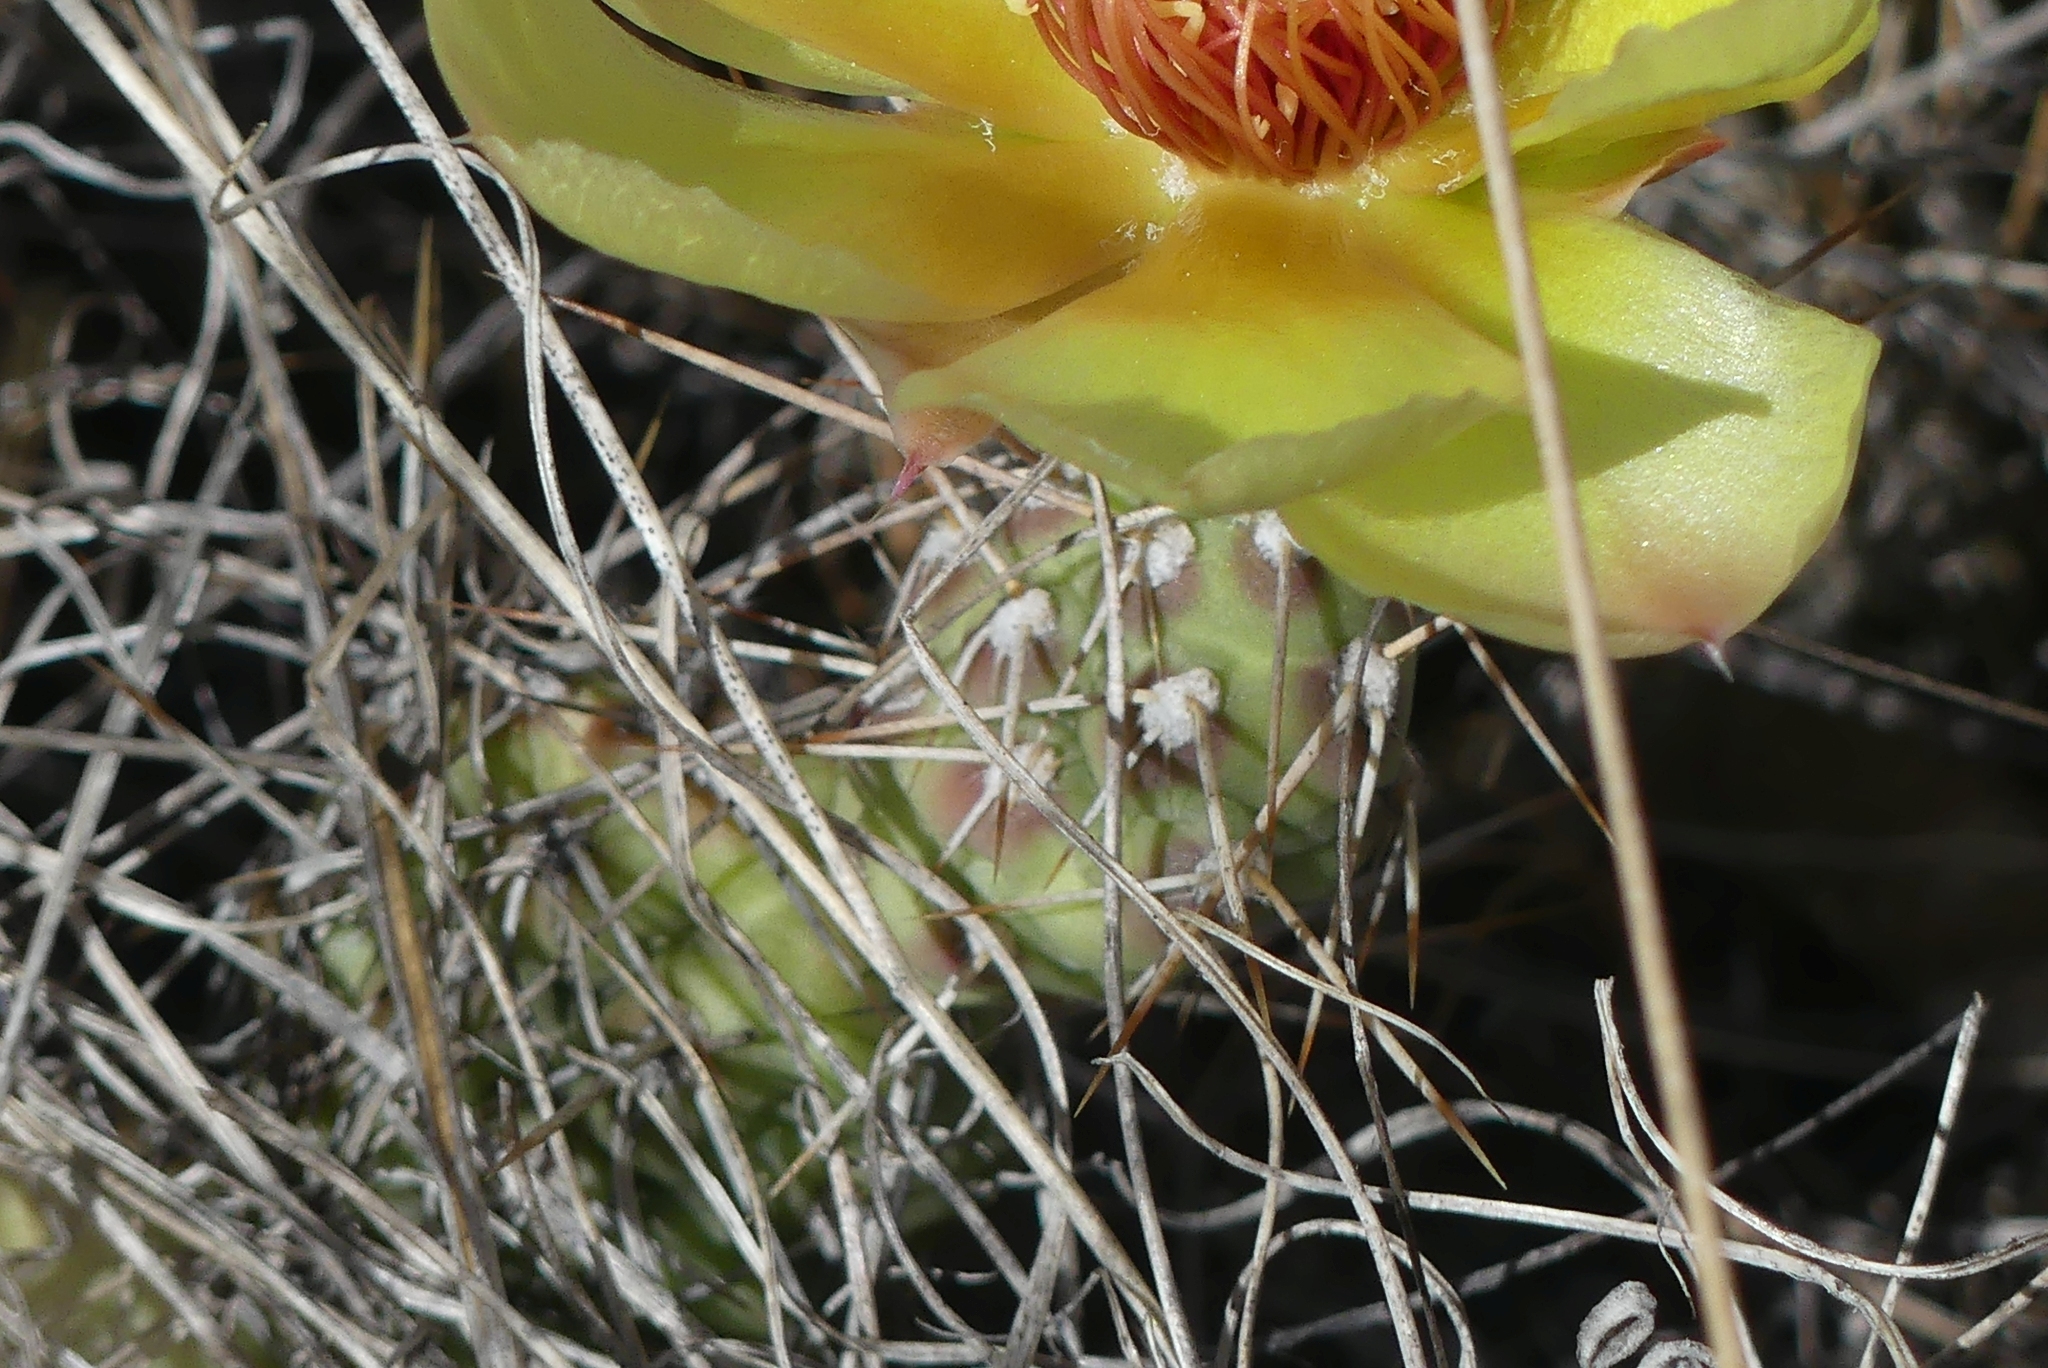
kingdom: Plantae
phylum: Tracheophyta
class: Magnoliopsida
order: Caryophyllales
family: Cactaceae
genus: Opuntia
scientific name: Opuntia fragilis
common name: Brittle cactus
